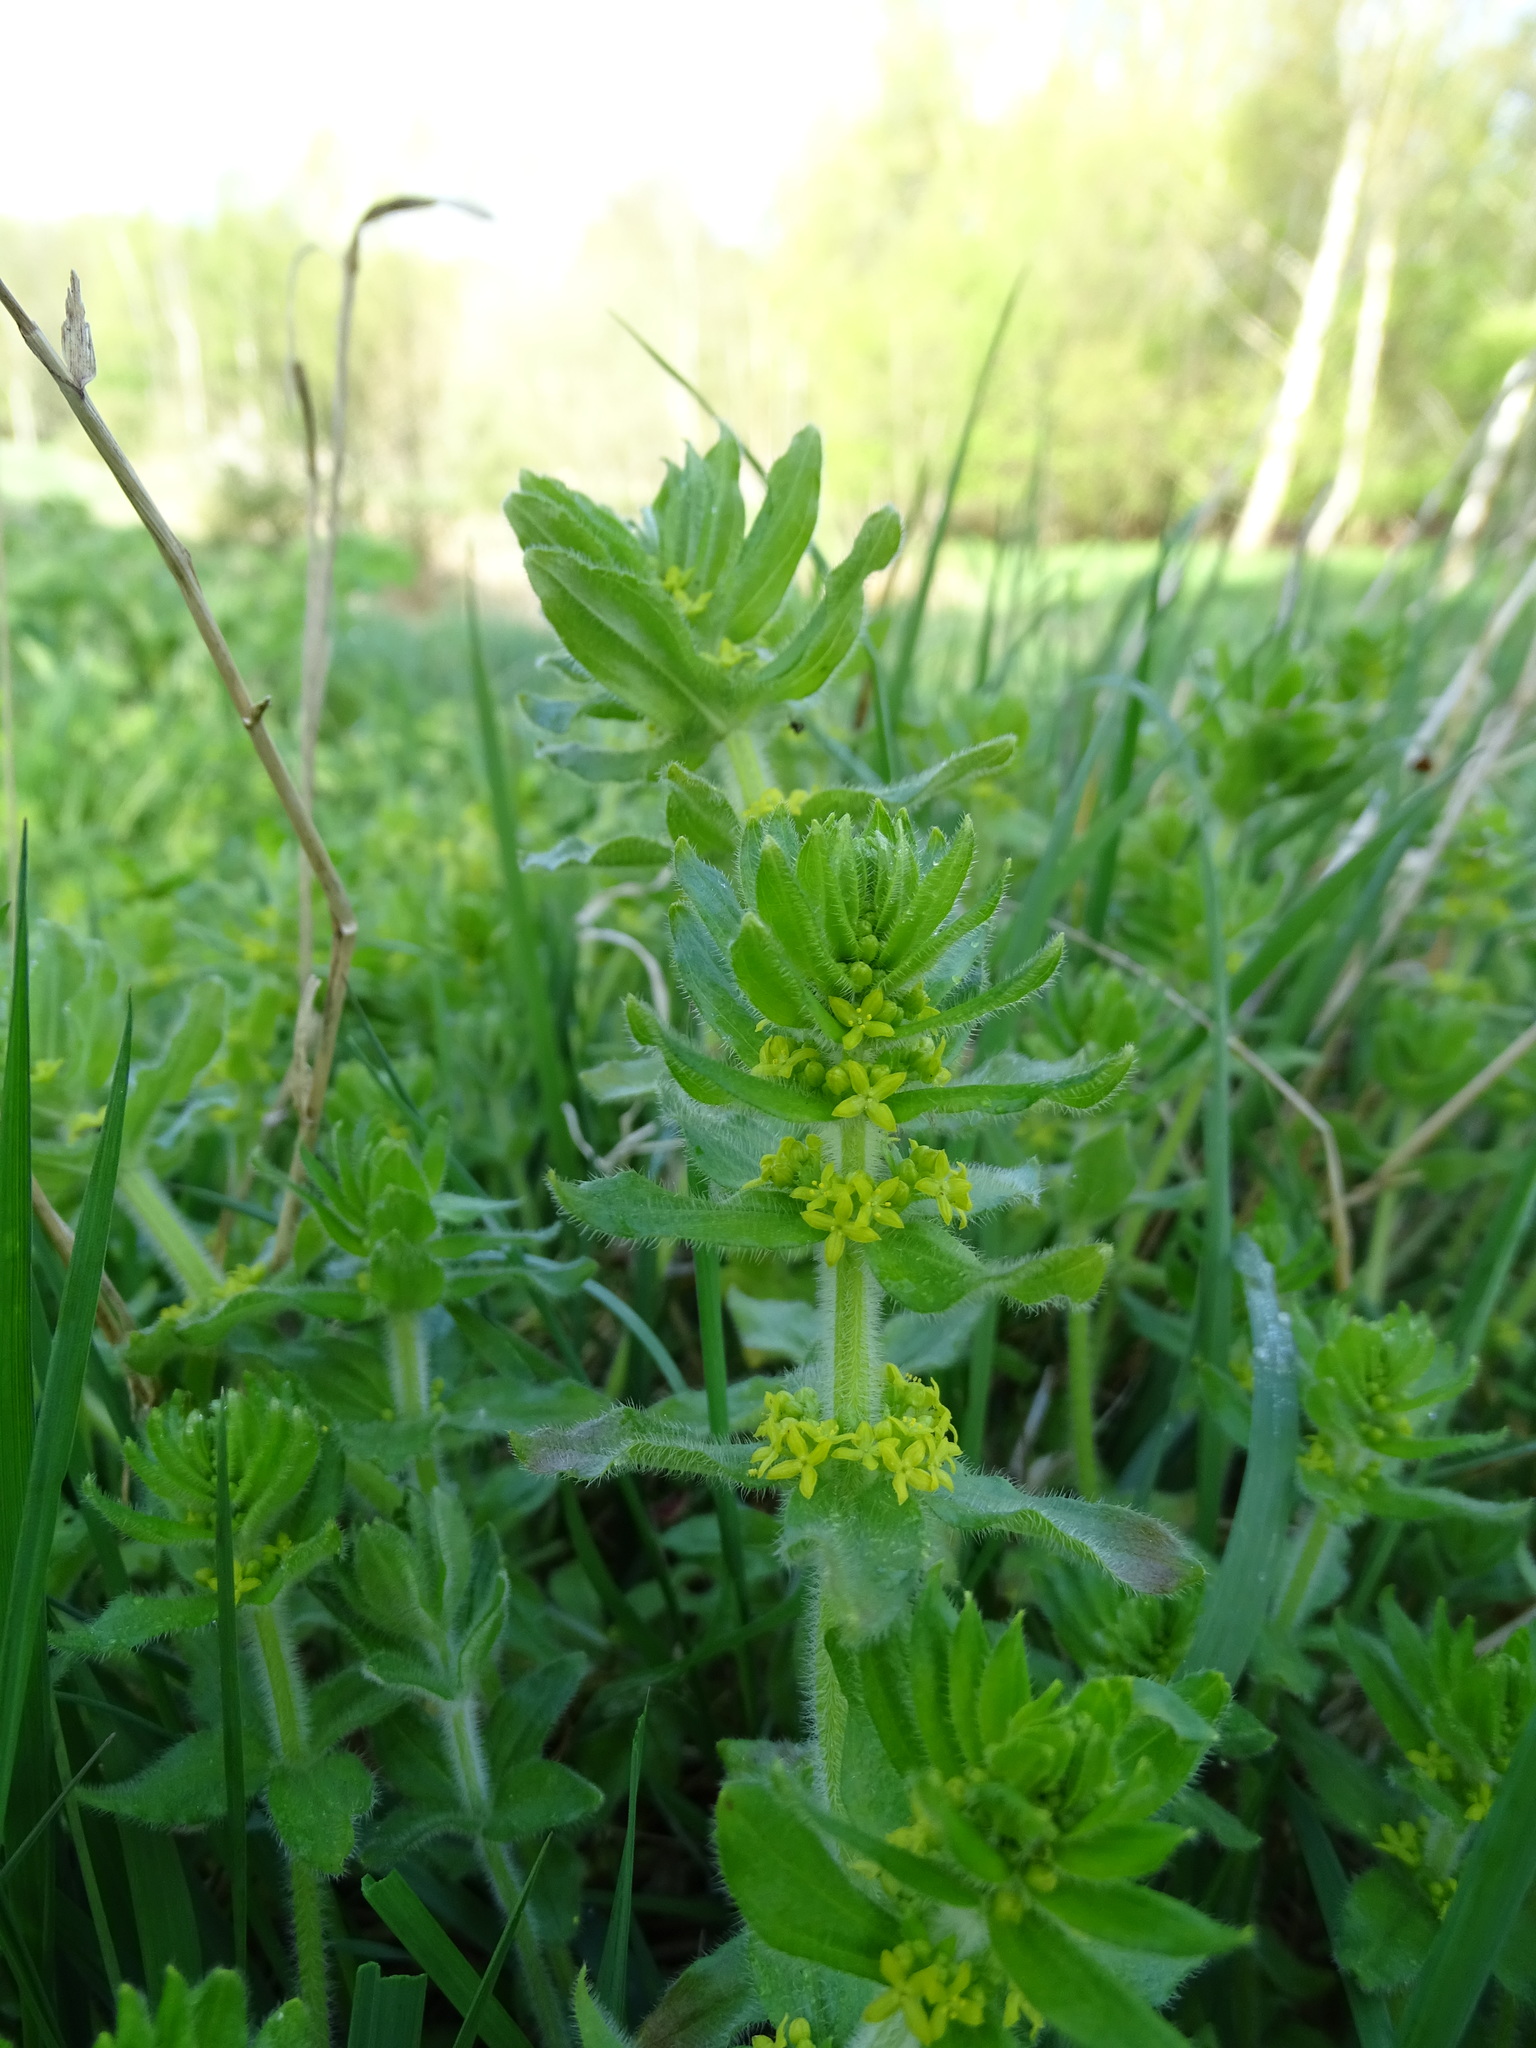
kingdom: Plantae
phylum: Tracheophyta
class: Magnoliopsida
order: Gentianales
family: Rubiaceae
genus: Cruciata
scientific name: Cruciata laevipes
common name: Crosswort
